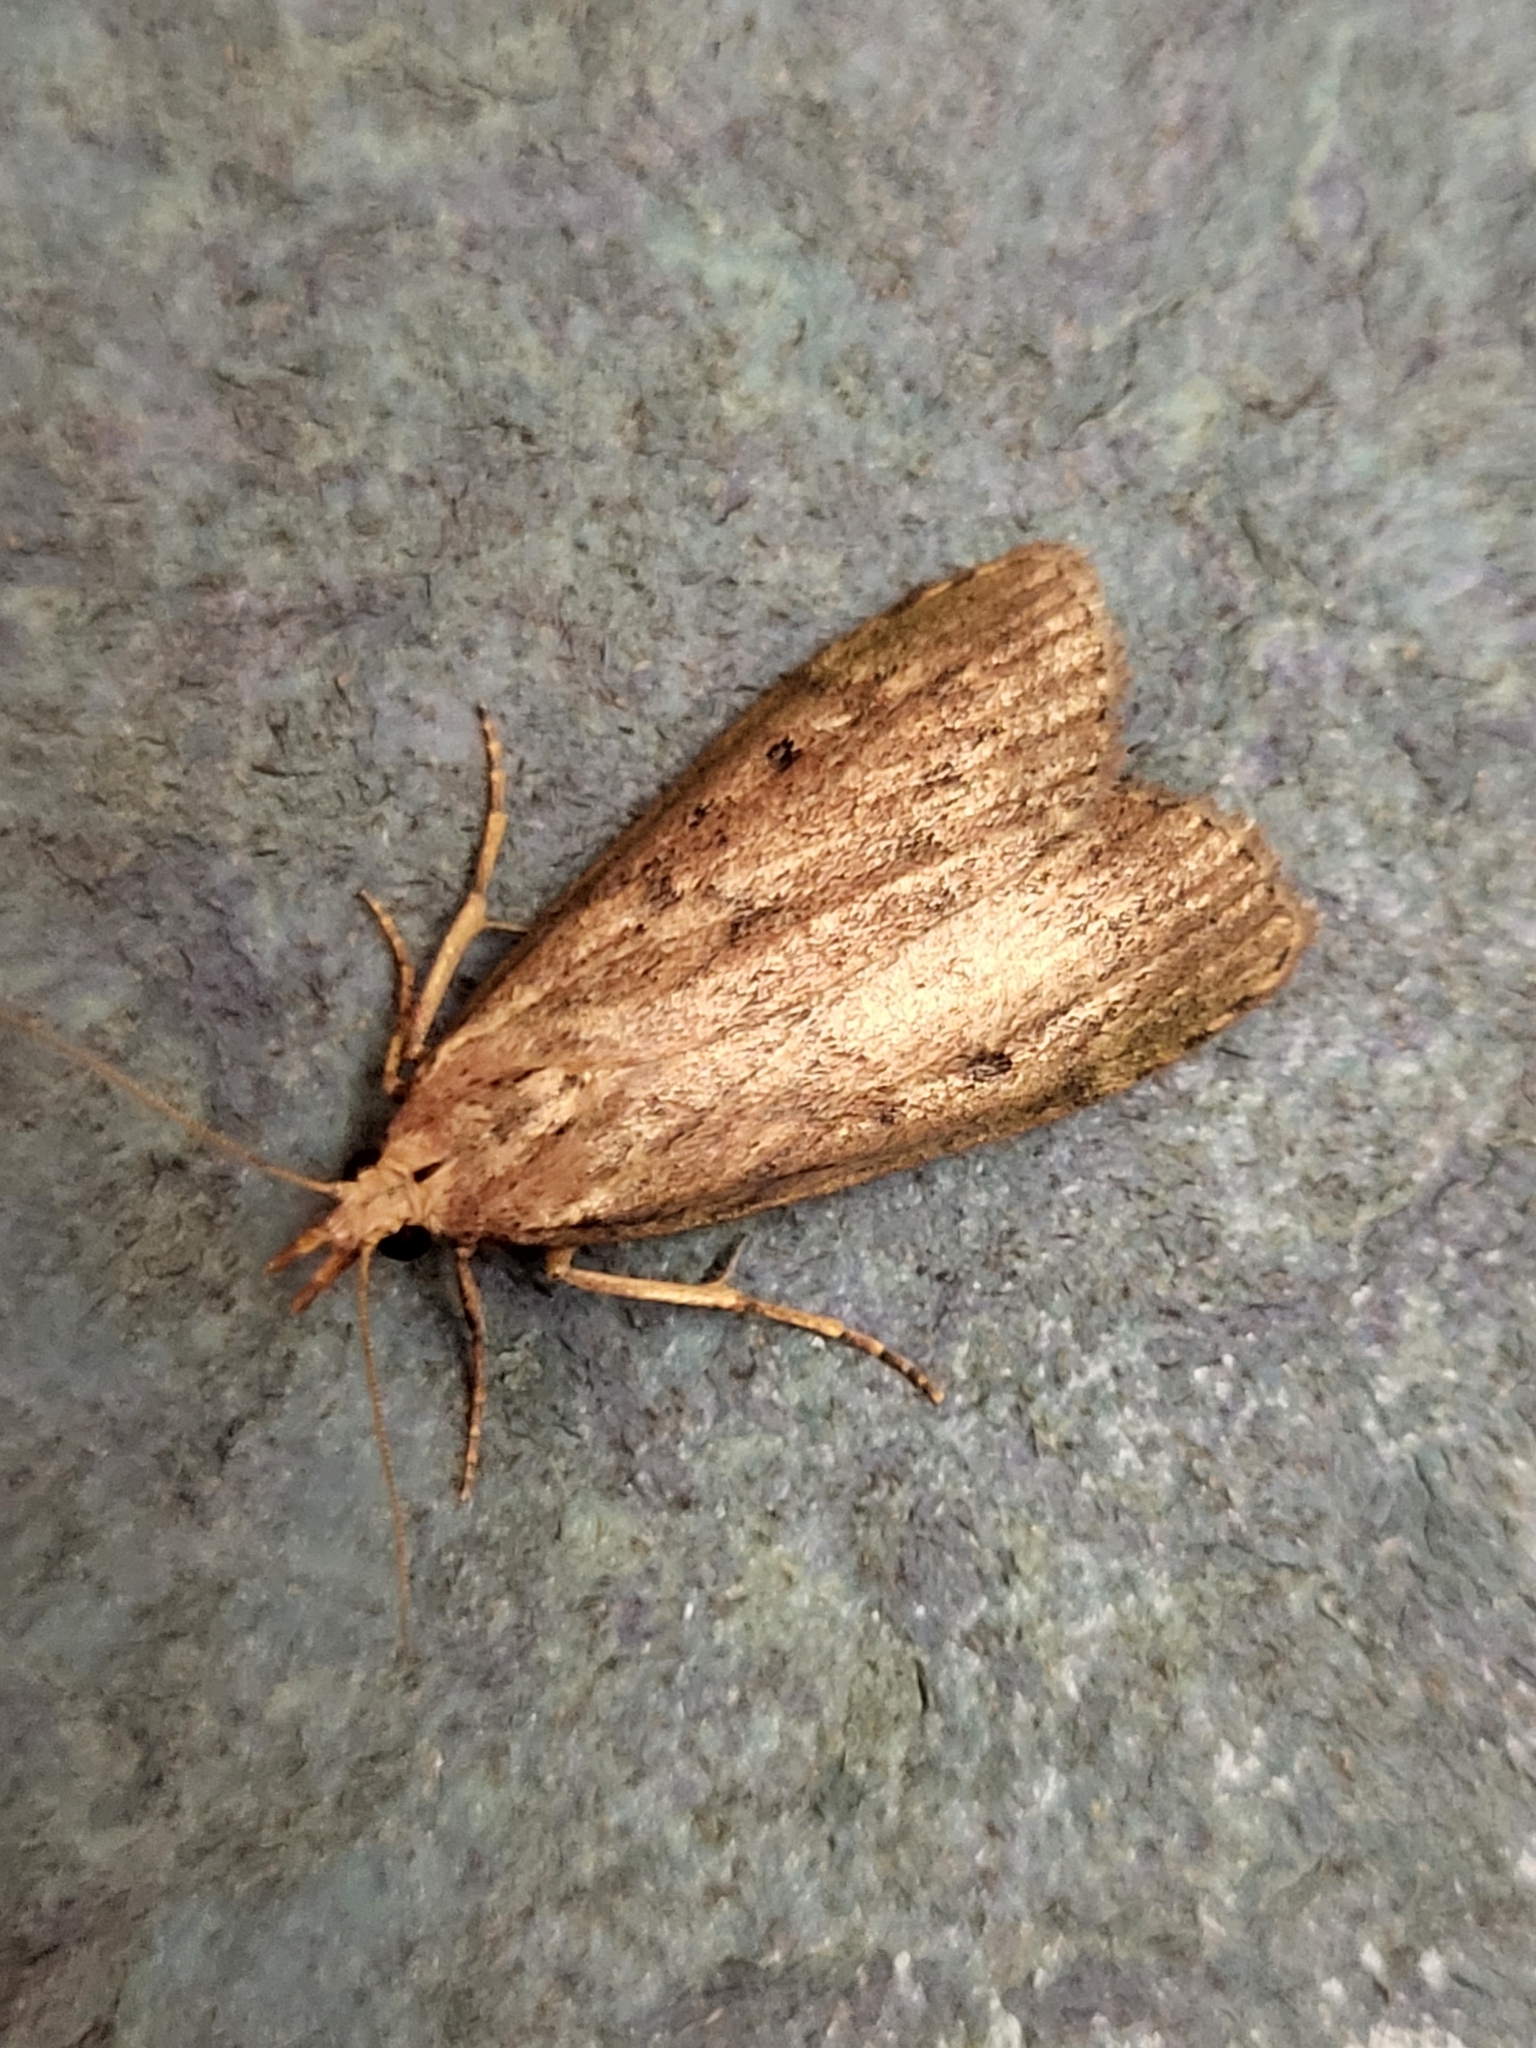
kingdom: Animalia
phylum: Arthropoda
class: Insecta
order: Lepidoptera
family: Pyralidae
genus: Aphomia
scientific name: Aphomia sociella
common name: Bee moth
